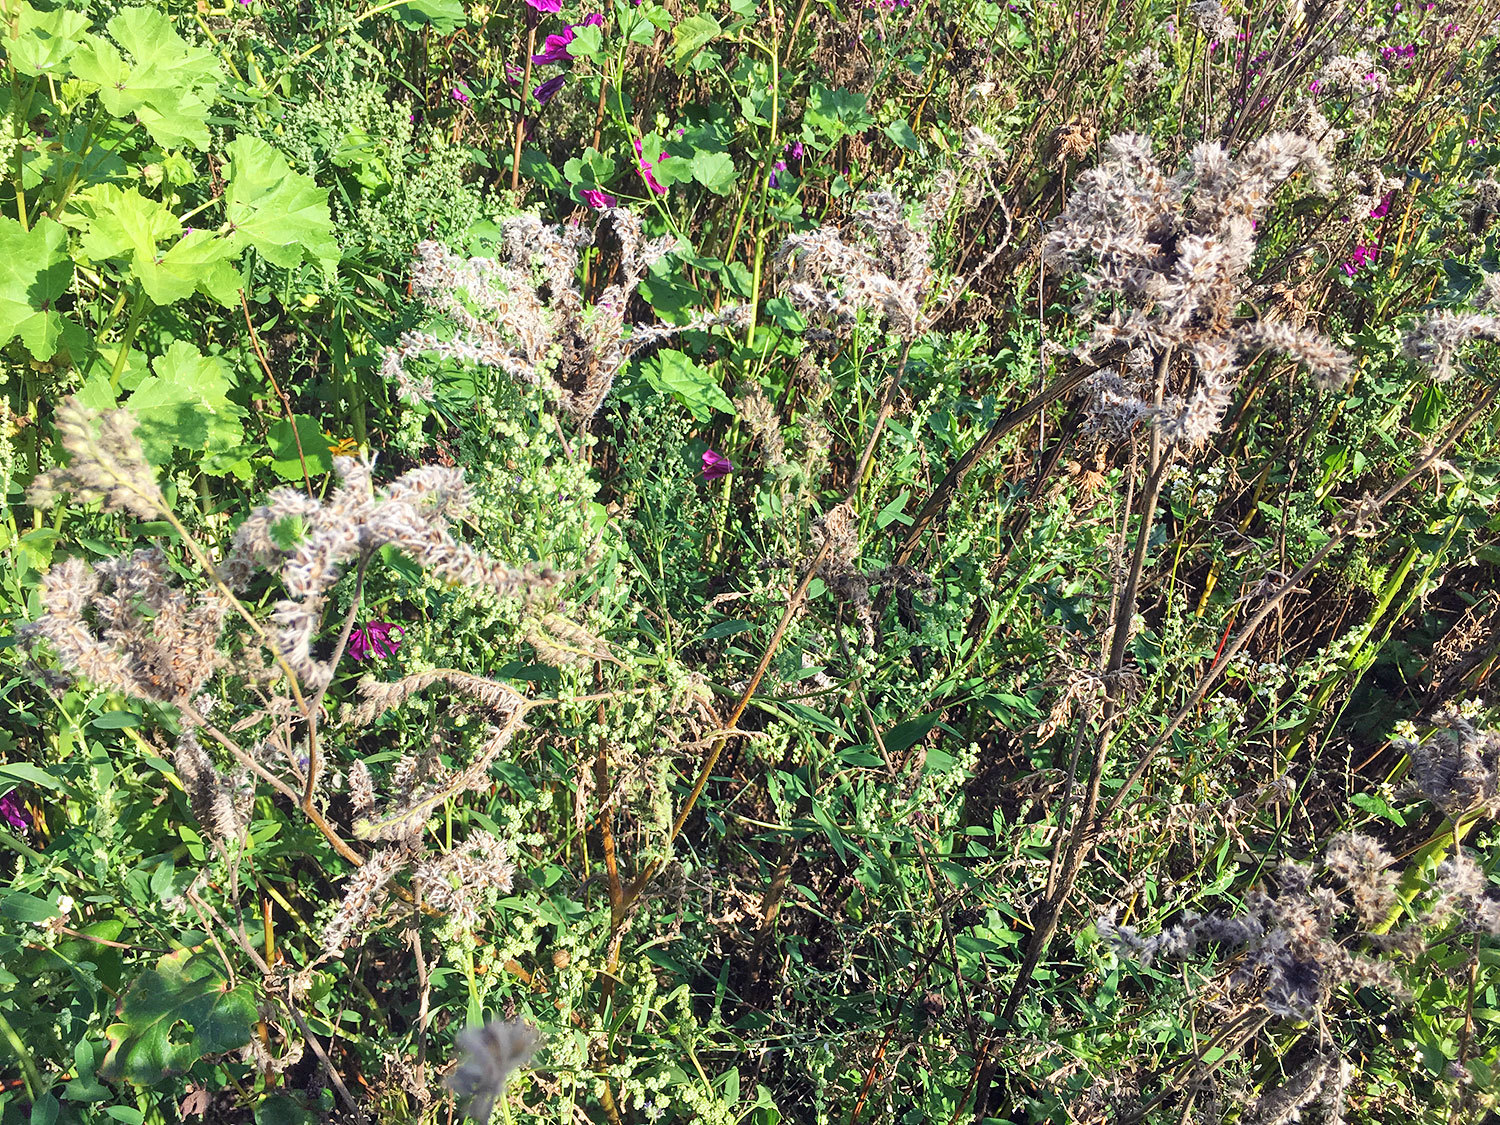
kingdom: Plantae
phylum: Tracheophyta
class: Magnoliopsida
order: Boraginales
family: Hydrophyllaceae
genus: Phacelia
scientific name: Phacelia tanacetifolia
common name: Phacelia
